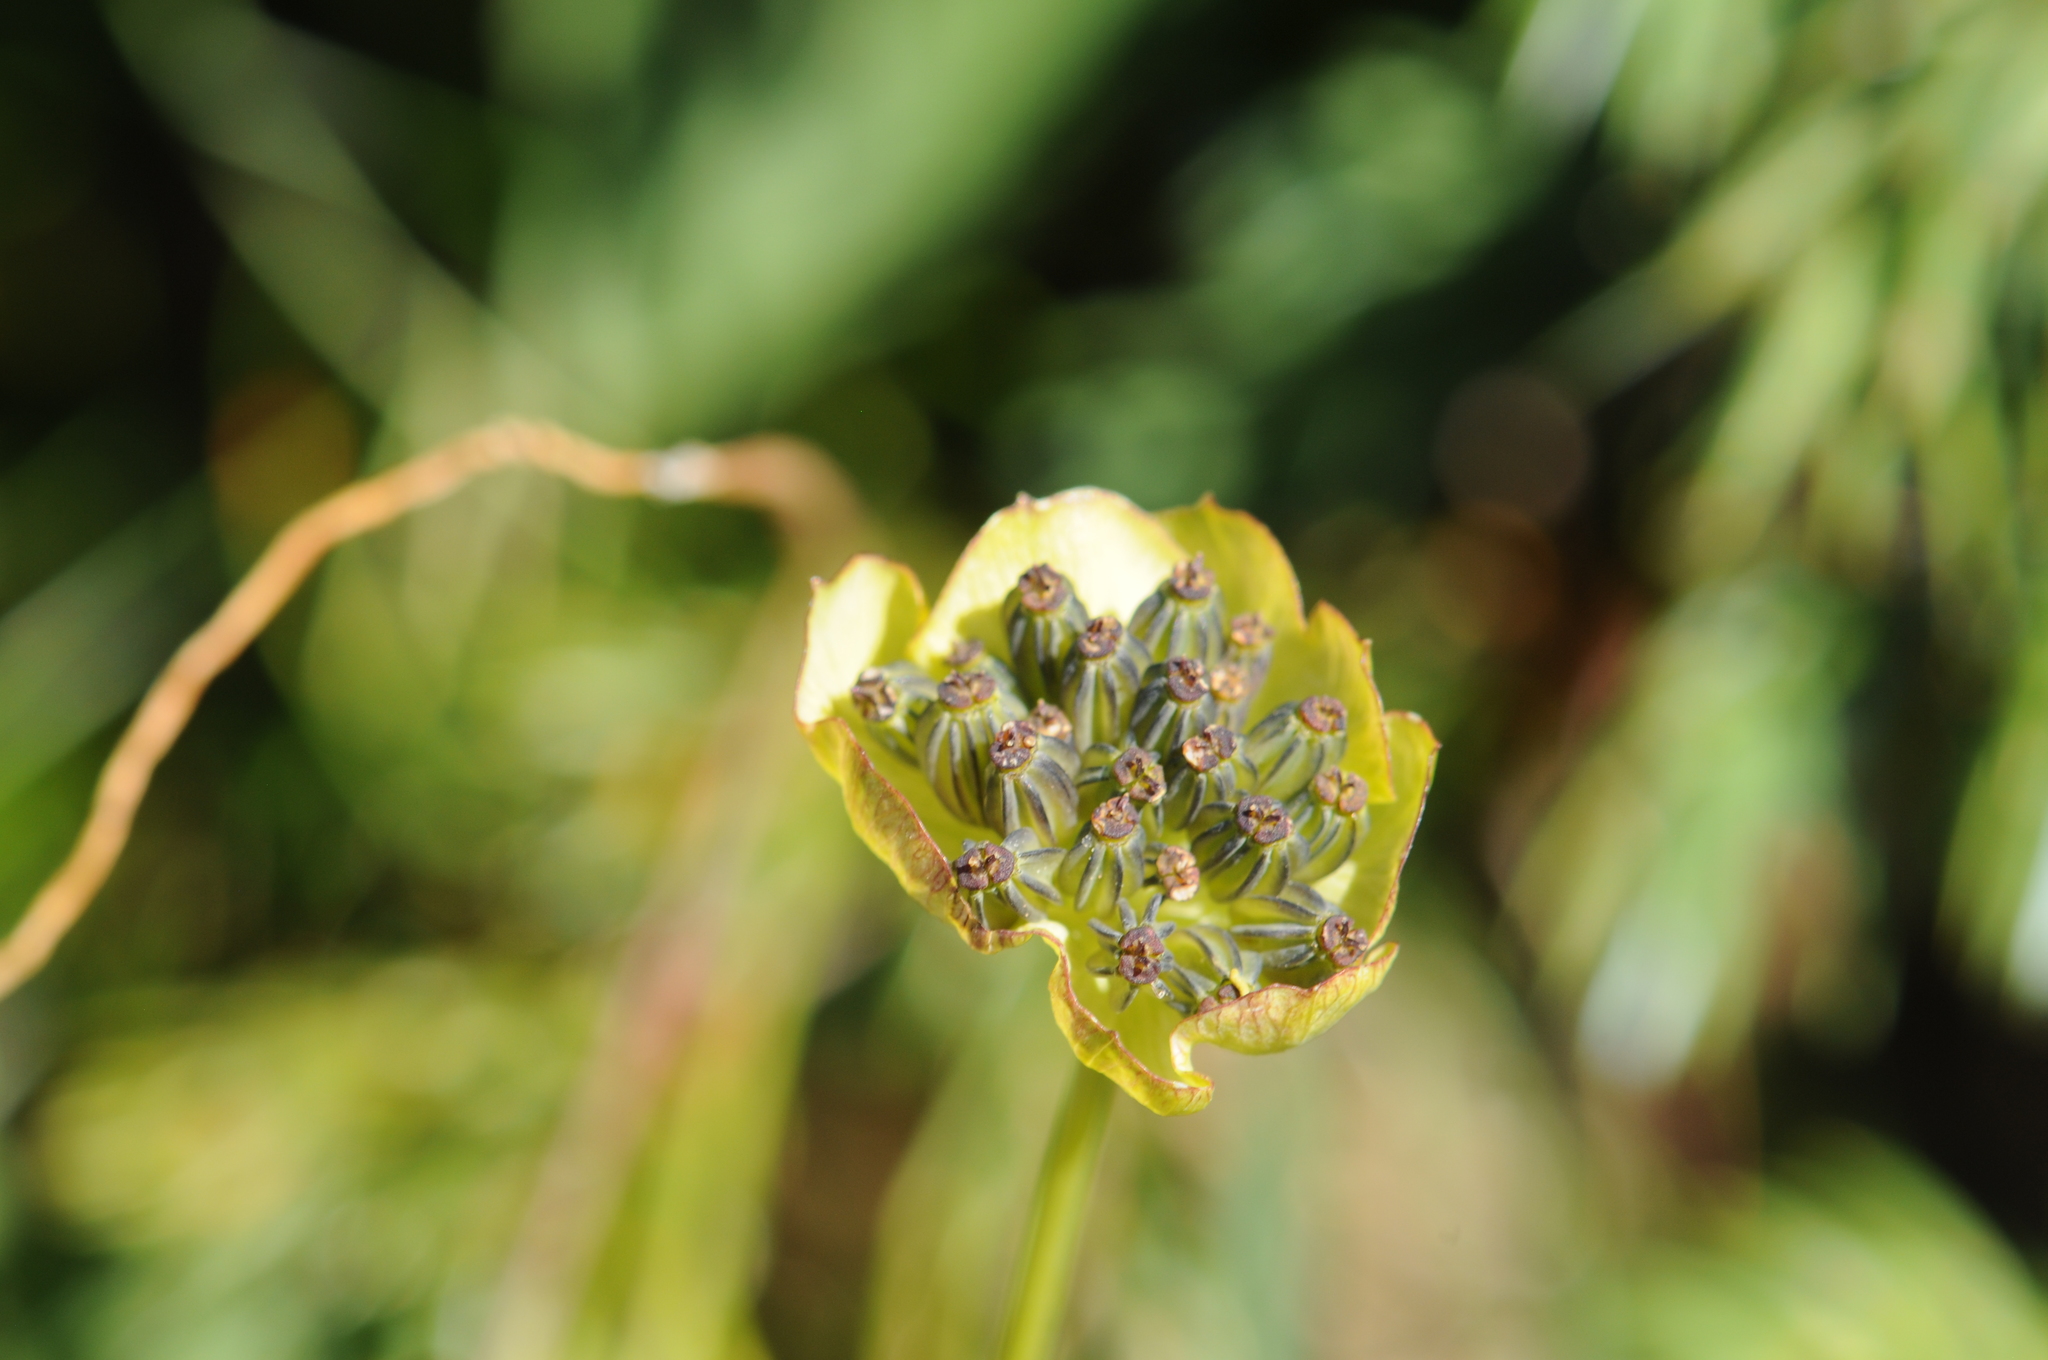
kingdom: Plantae
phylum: Tracheophyta
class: Magnoliopsida
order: Apiales
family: Apiaceae
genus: Bupleurum
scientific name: Bupleurum stellatum
